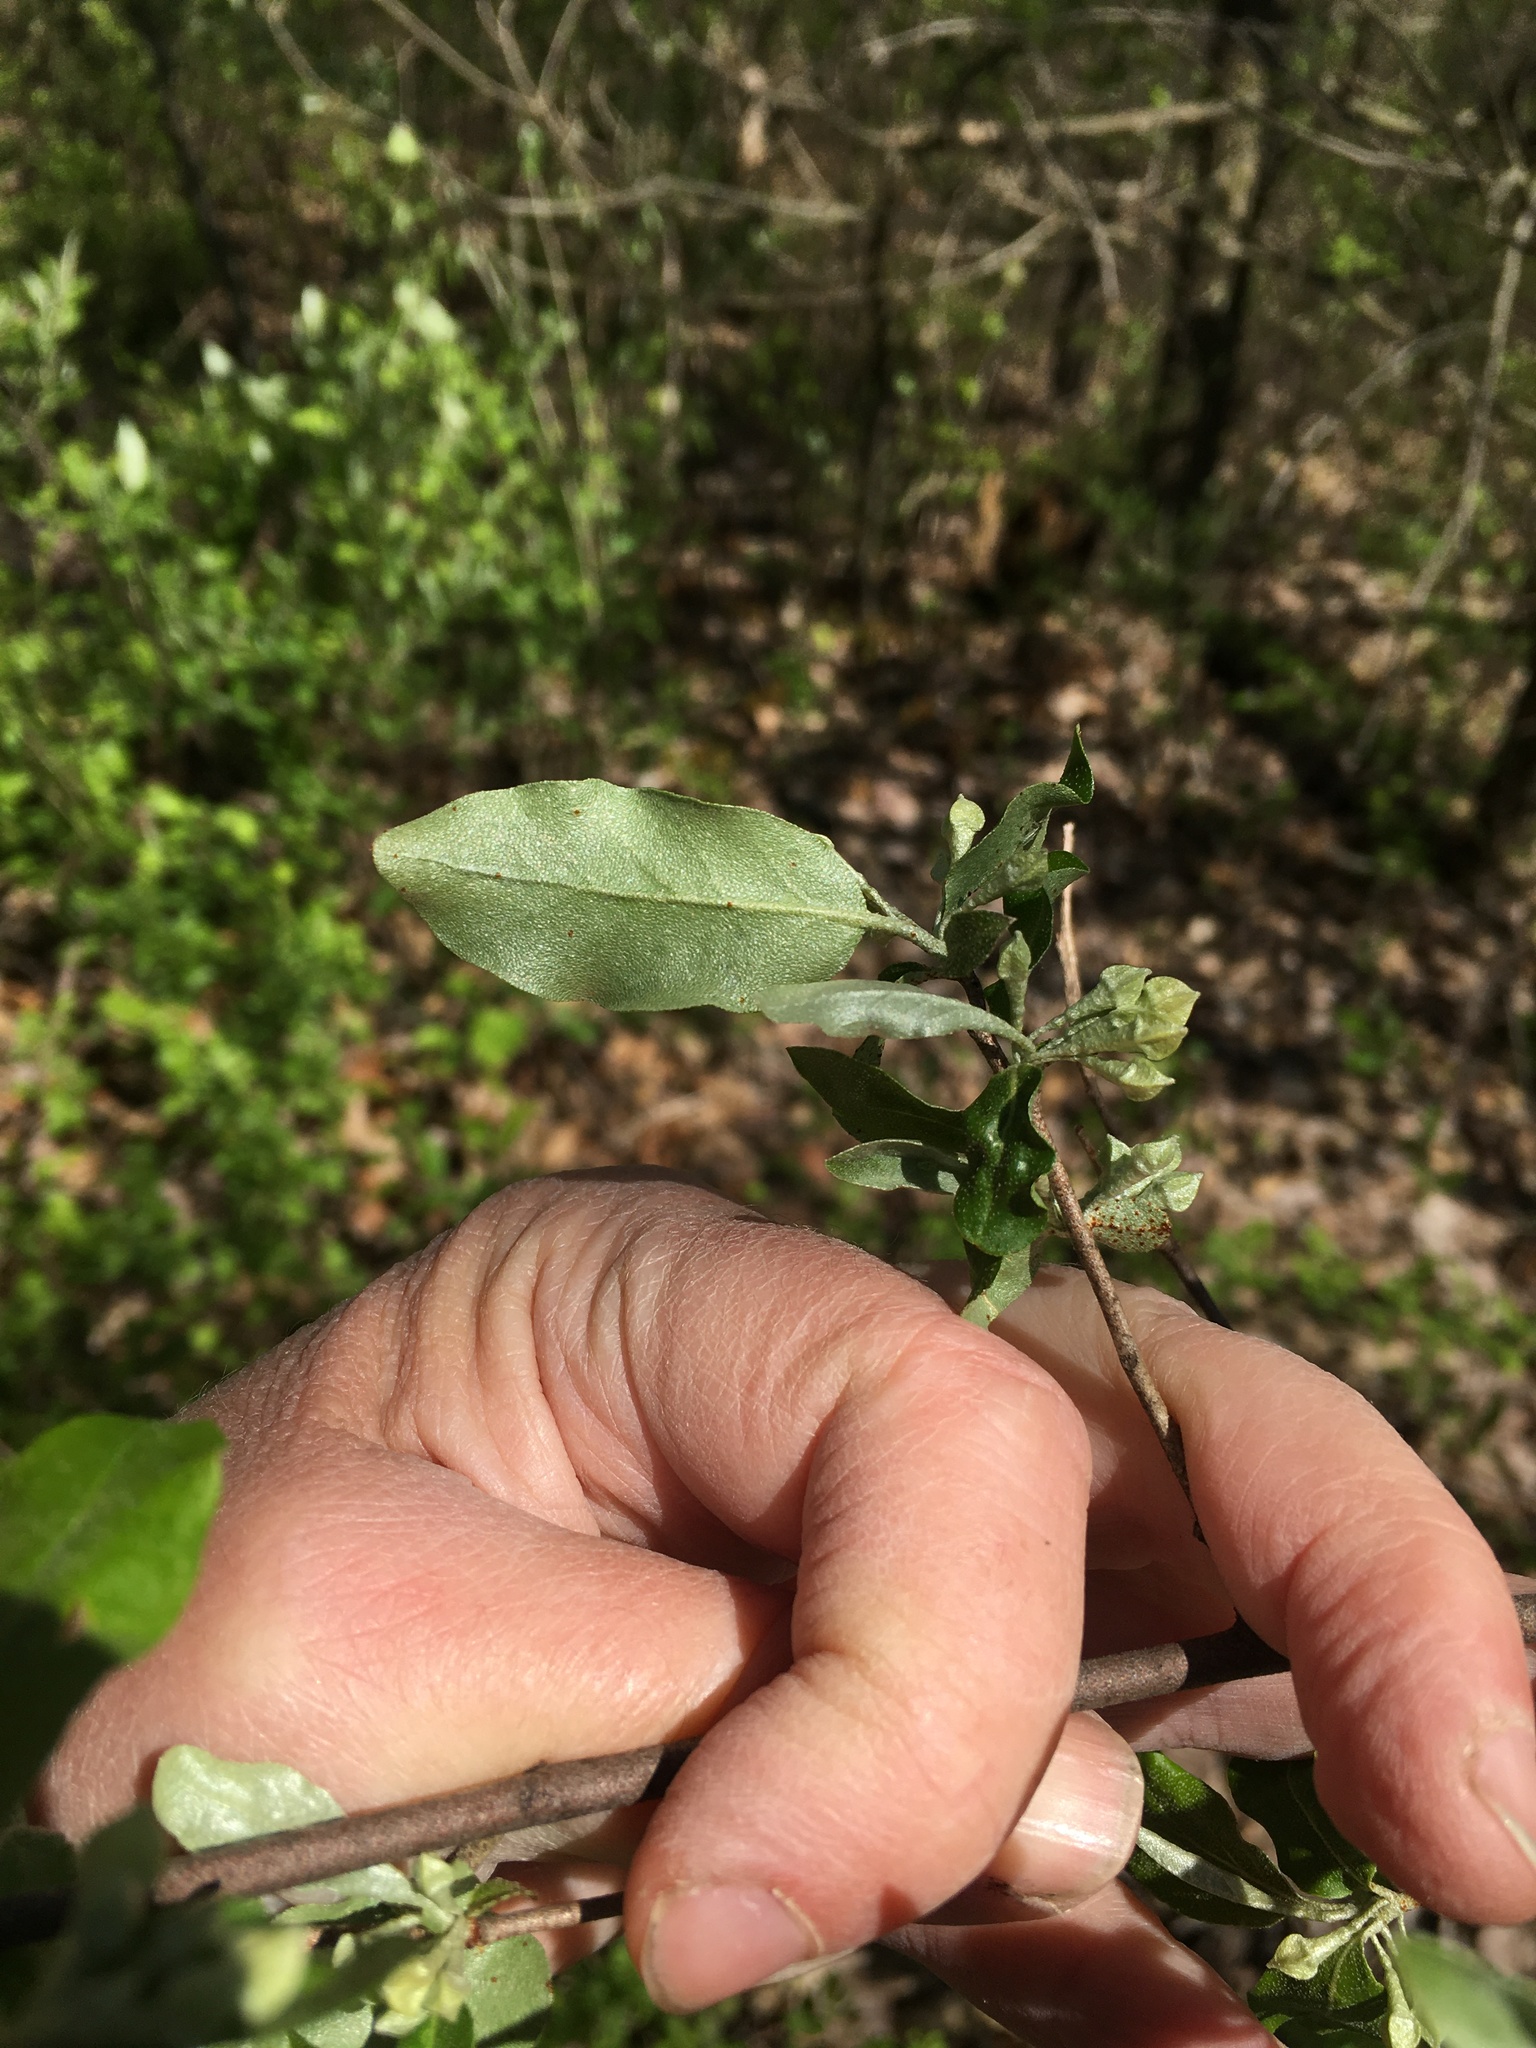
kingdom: Plantae
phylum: Tracheophyta
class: Magnoliopsida
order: Rosales
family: Elaeagnaceae
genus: Elaeagnus
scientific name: Elaeagnus umbellata
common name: Autumn olive
